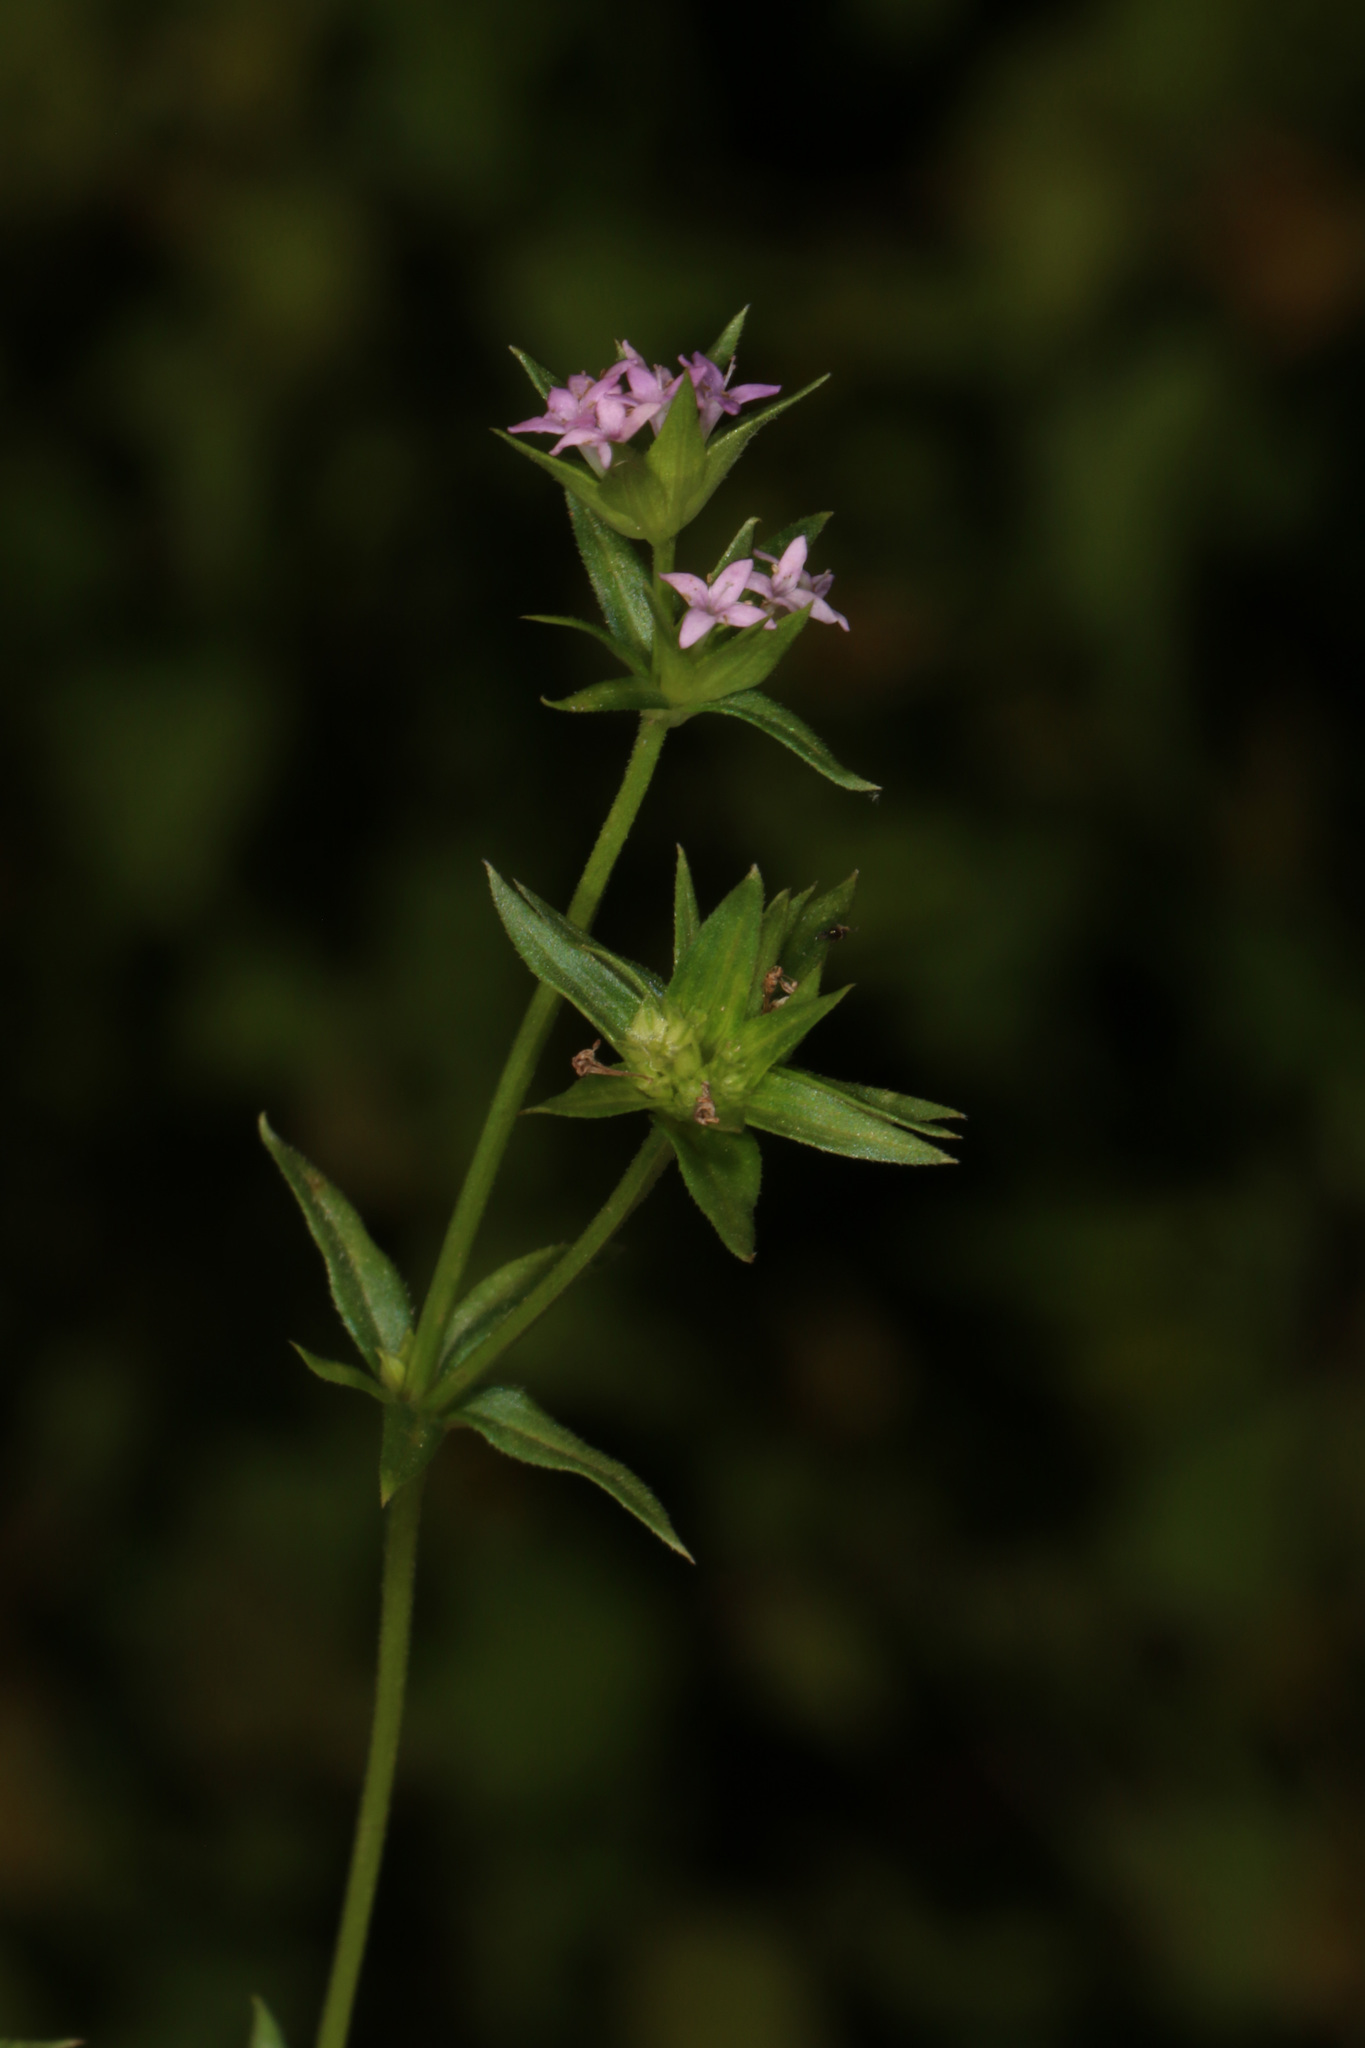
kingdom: Plantae
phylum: Tracheophyta
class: Magnoliopsida
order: Gentianales
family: Rubiaceae
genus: Sherardia
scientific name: Sherardia arvensis
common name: Field madder
